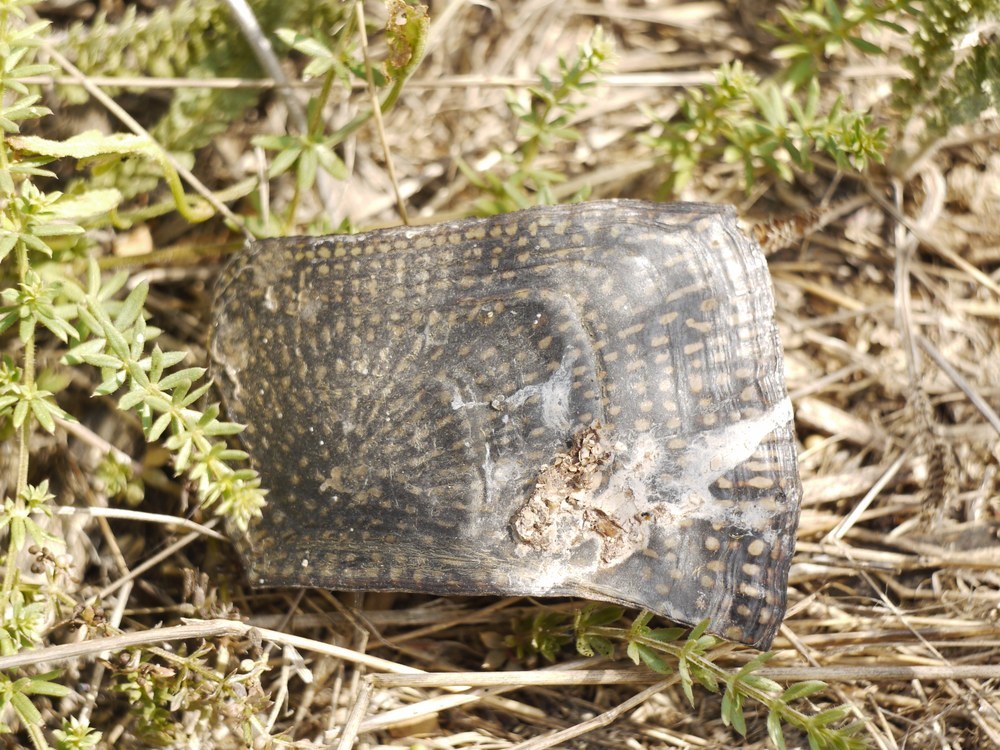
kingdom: Animalia
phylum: Chordata
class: Testudines
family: Emydidae
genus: Emys
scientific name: Emys orbicularis
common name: European pond turtle
